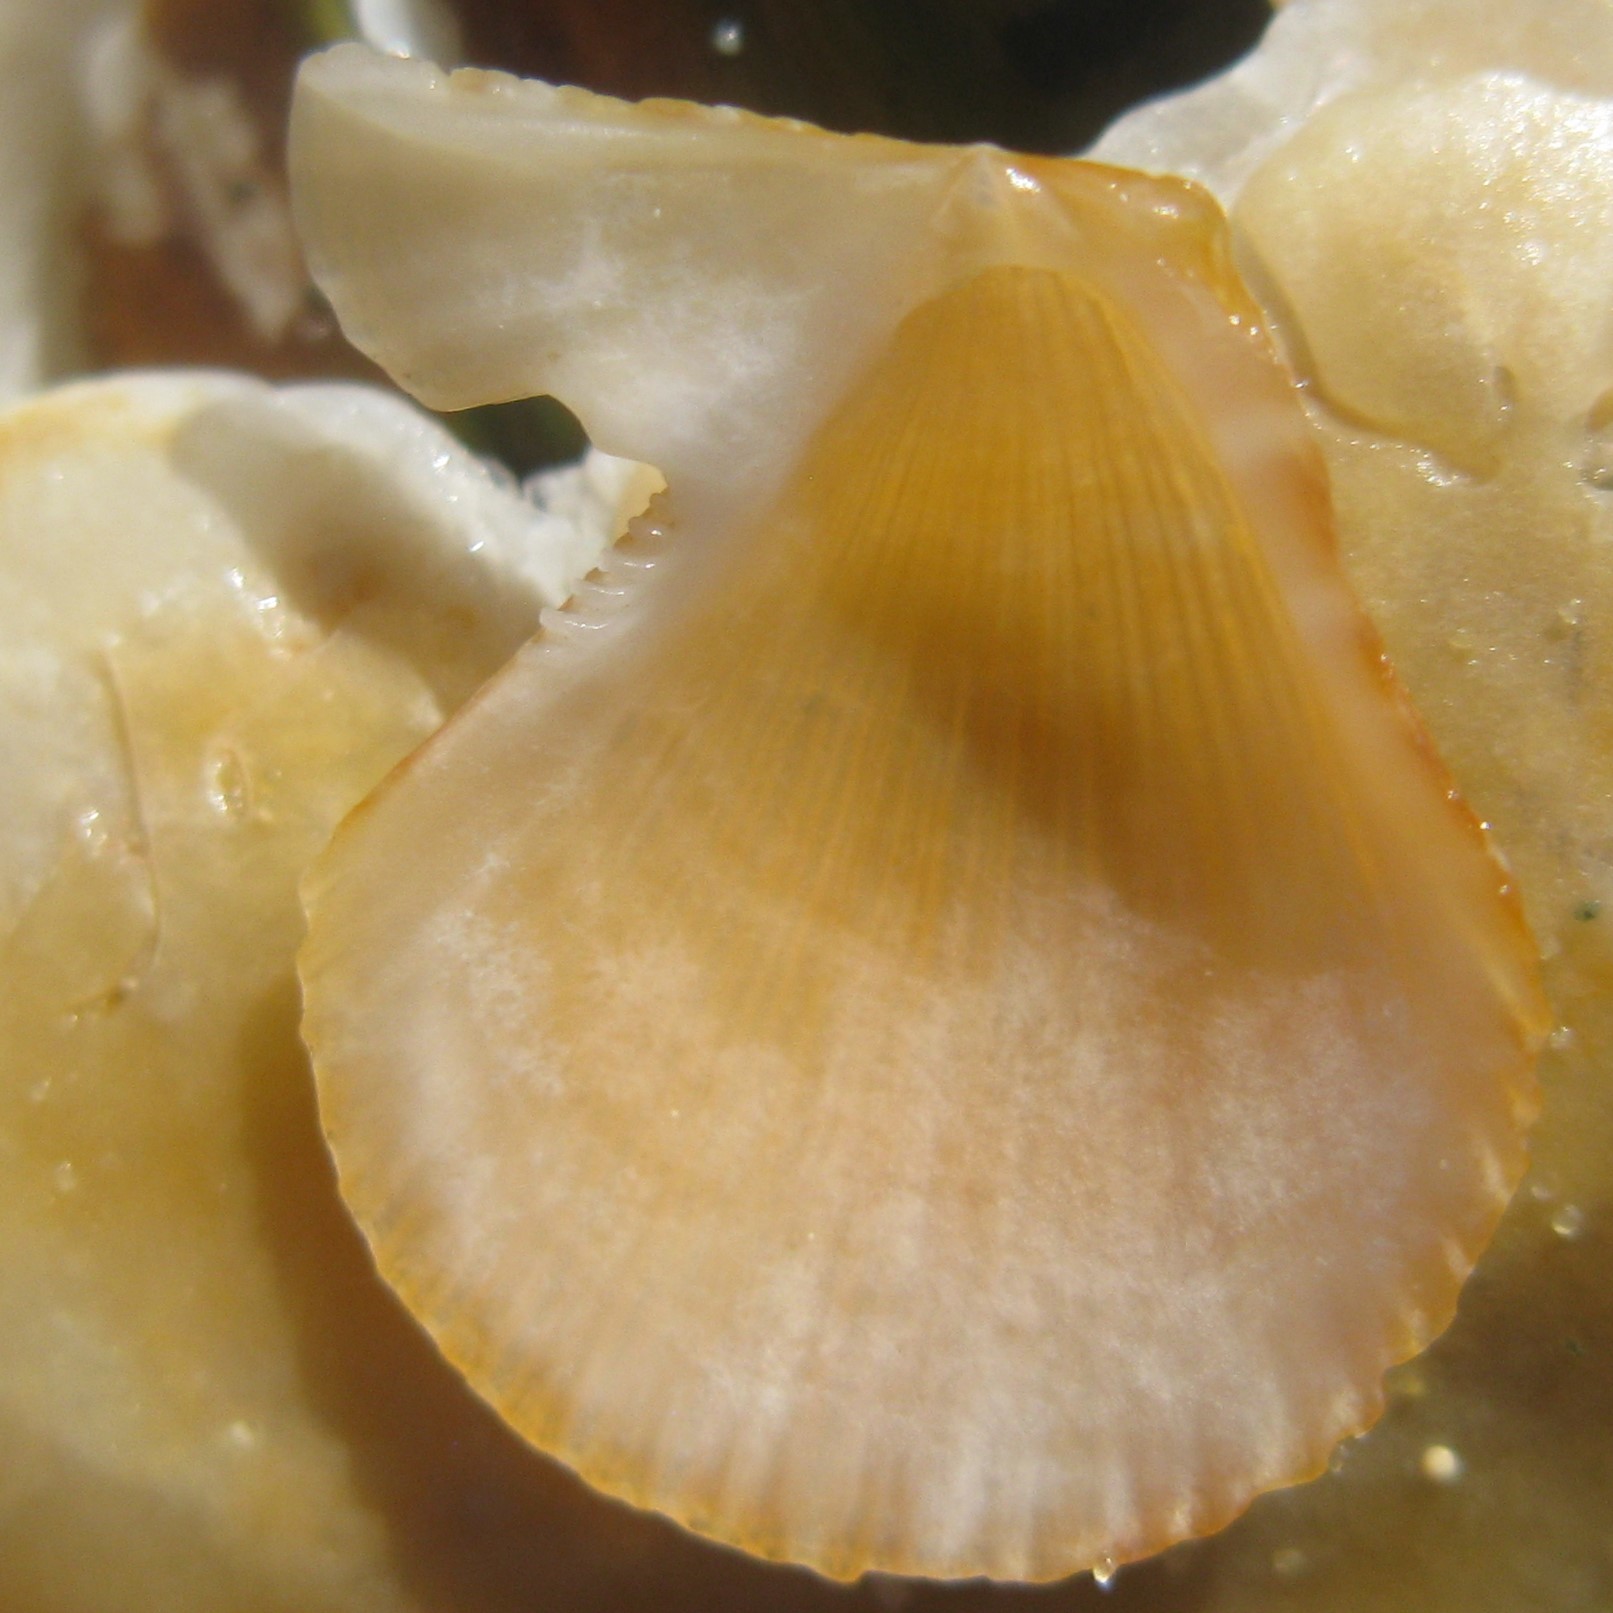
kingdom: Animalia
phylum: Mollusca
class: Bivalvia
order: Pectinida
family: Pectinidae
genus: Talochlamys
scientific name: Talochlamys zelandiae
